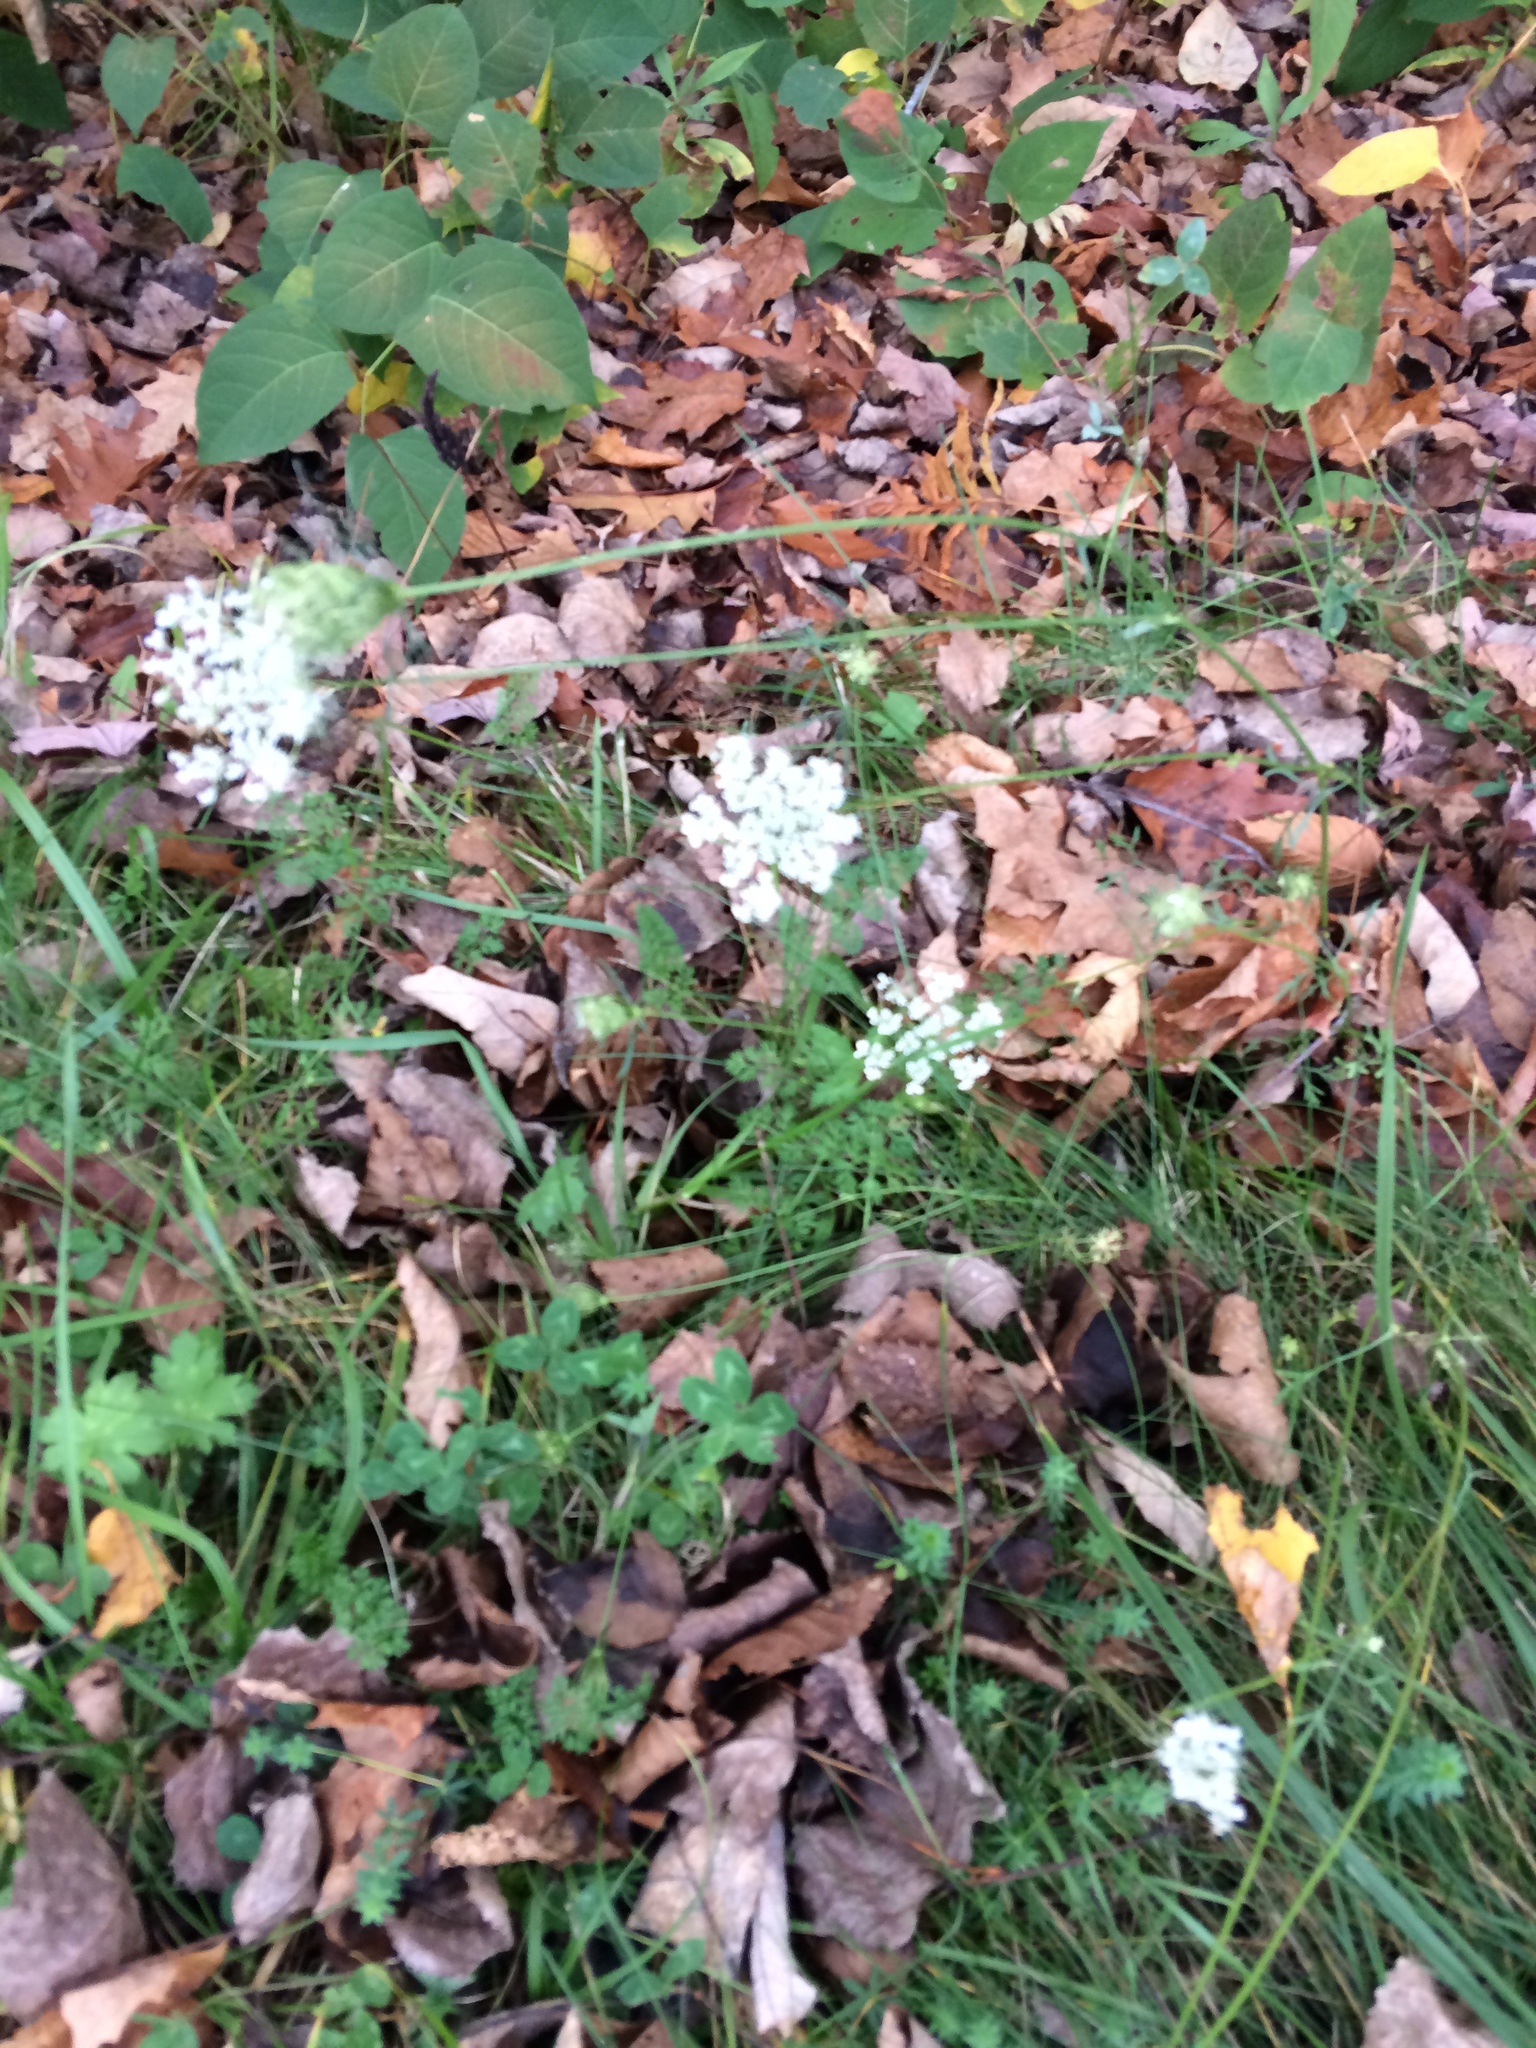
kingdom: Plantae
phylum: Tracheophyta
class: Magnoliopsida
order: Apiales
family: Apiaceae
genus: Daucus
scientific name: Daucus carota
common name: Wild carrot
